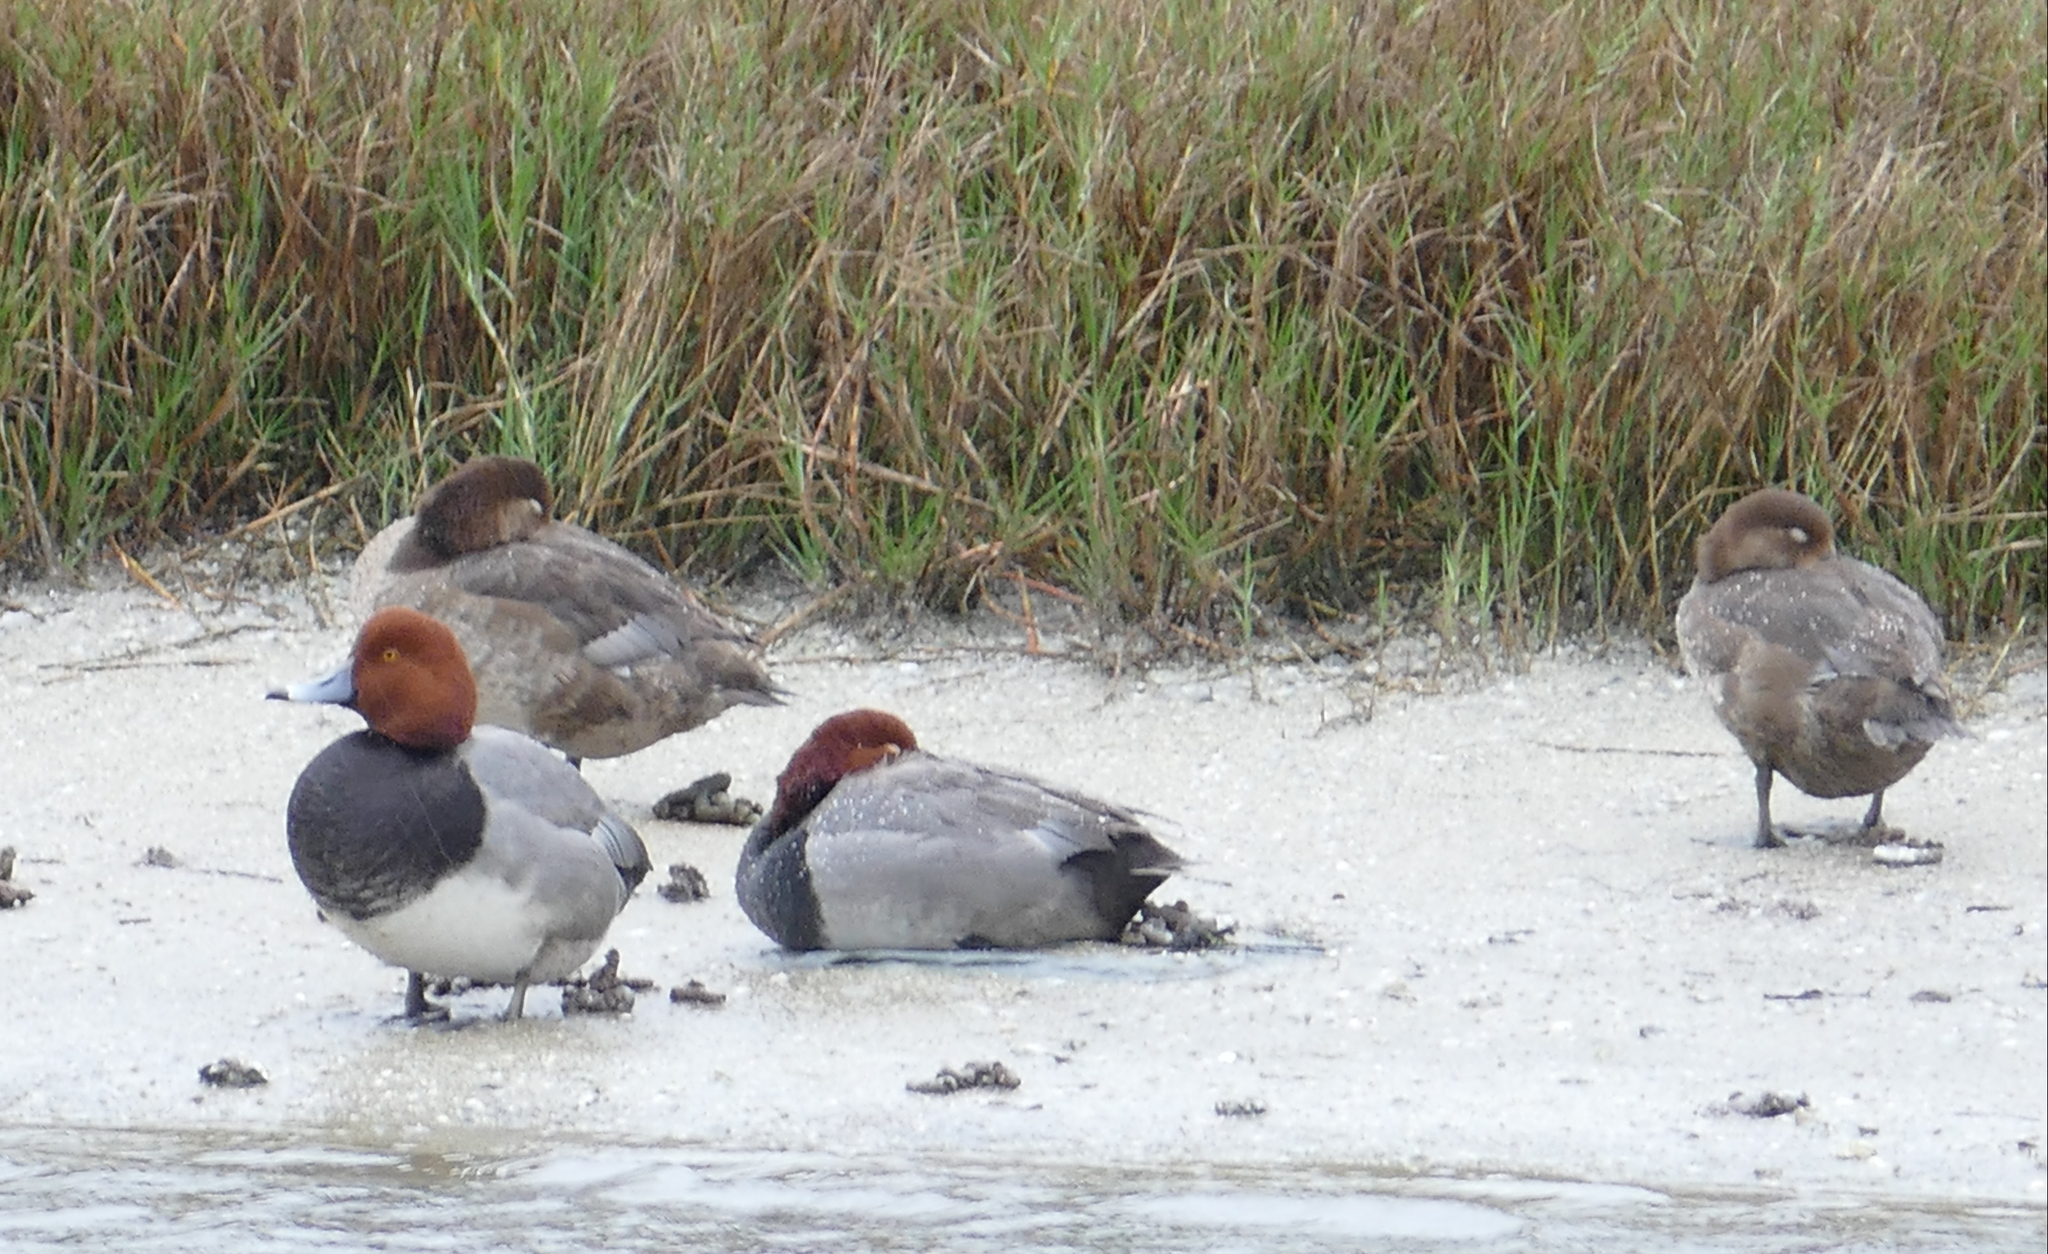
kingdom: Animalia
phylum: Chordata
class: Aves
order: Anseriformes
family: Anatidae
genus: Aythya
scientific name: Aythya americana
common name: Redhead
